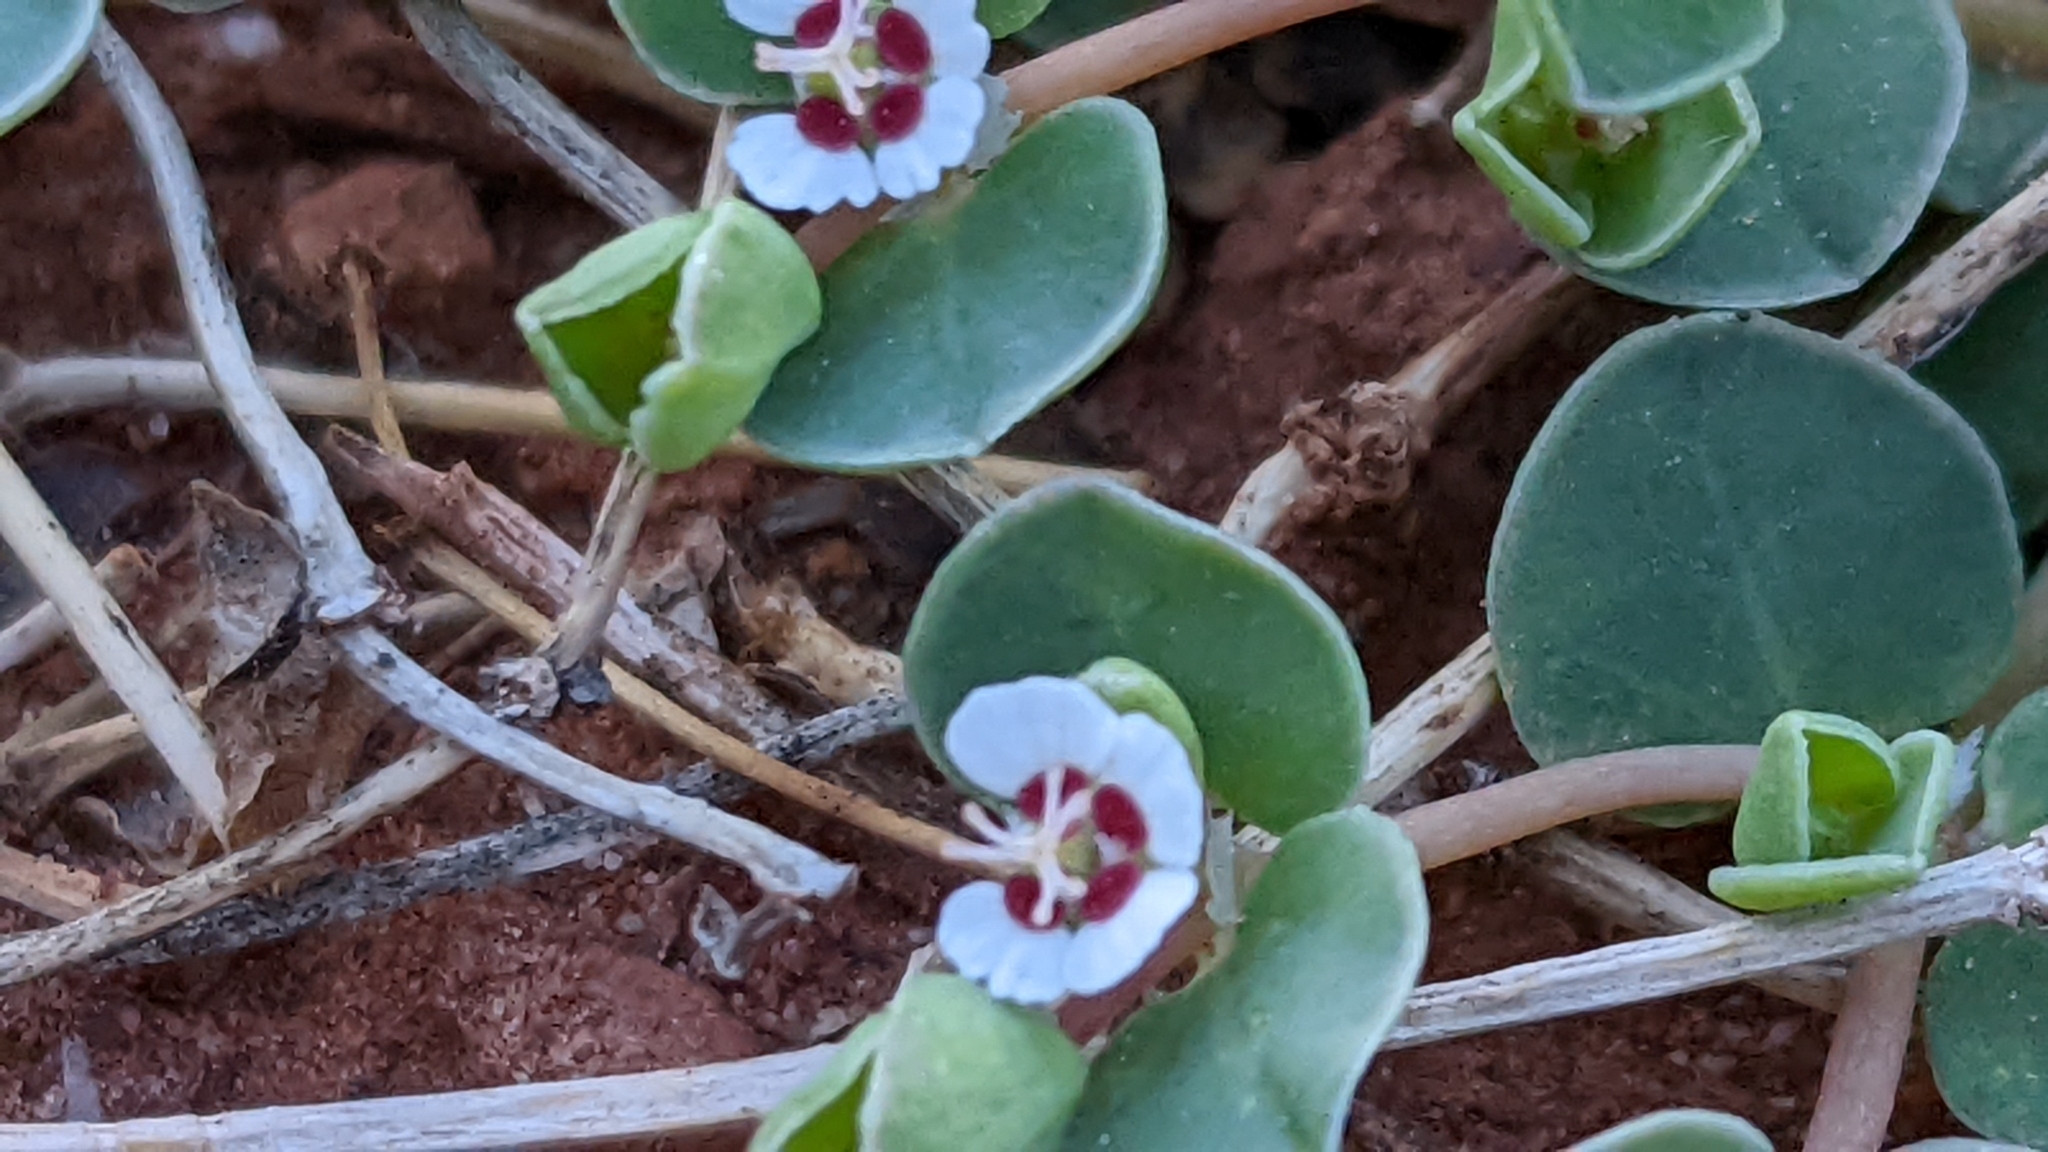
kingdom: Plantae
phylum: Tracheophyta
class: Magnoliopsida
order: Malpighiales
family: Euphorbiaceae
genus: Euphorbia
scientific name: Euphorbia albomarginata
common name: Whitemargin sandmat
